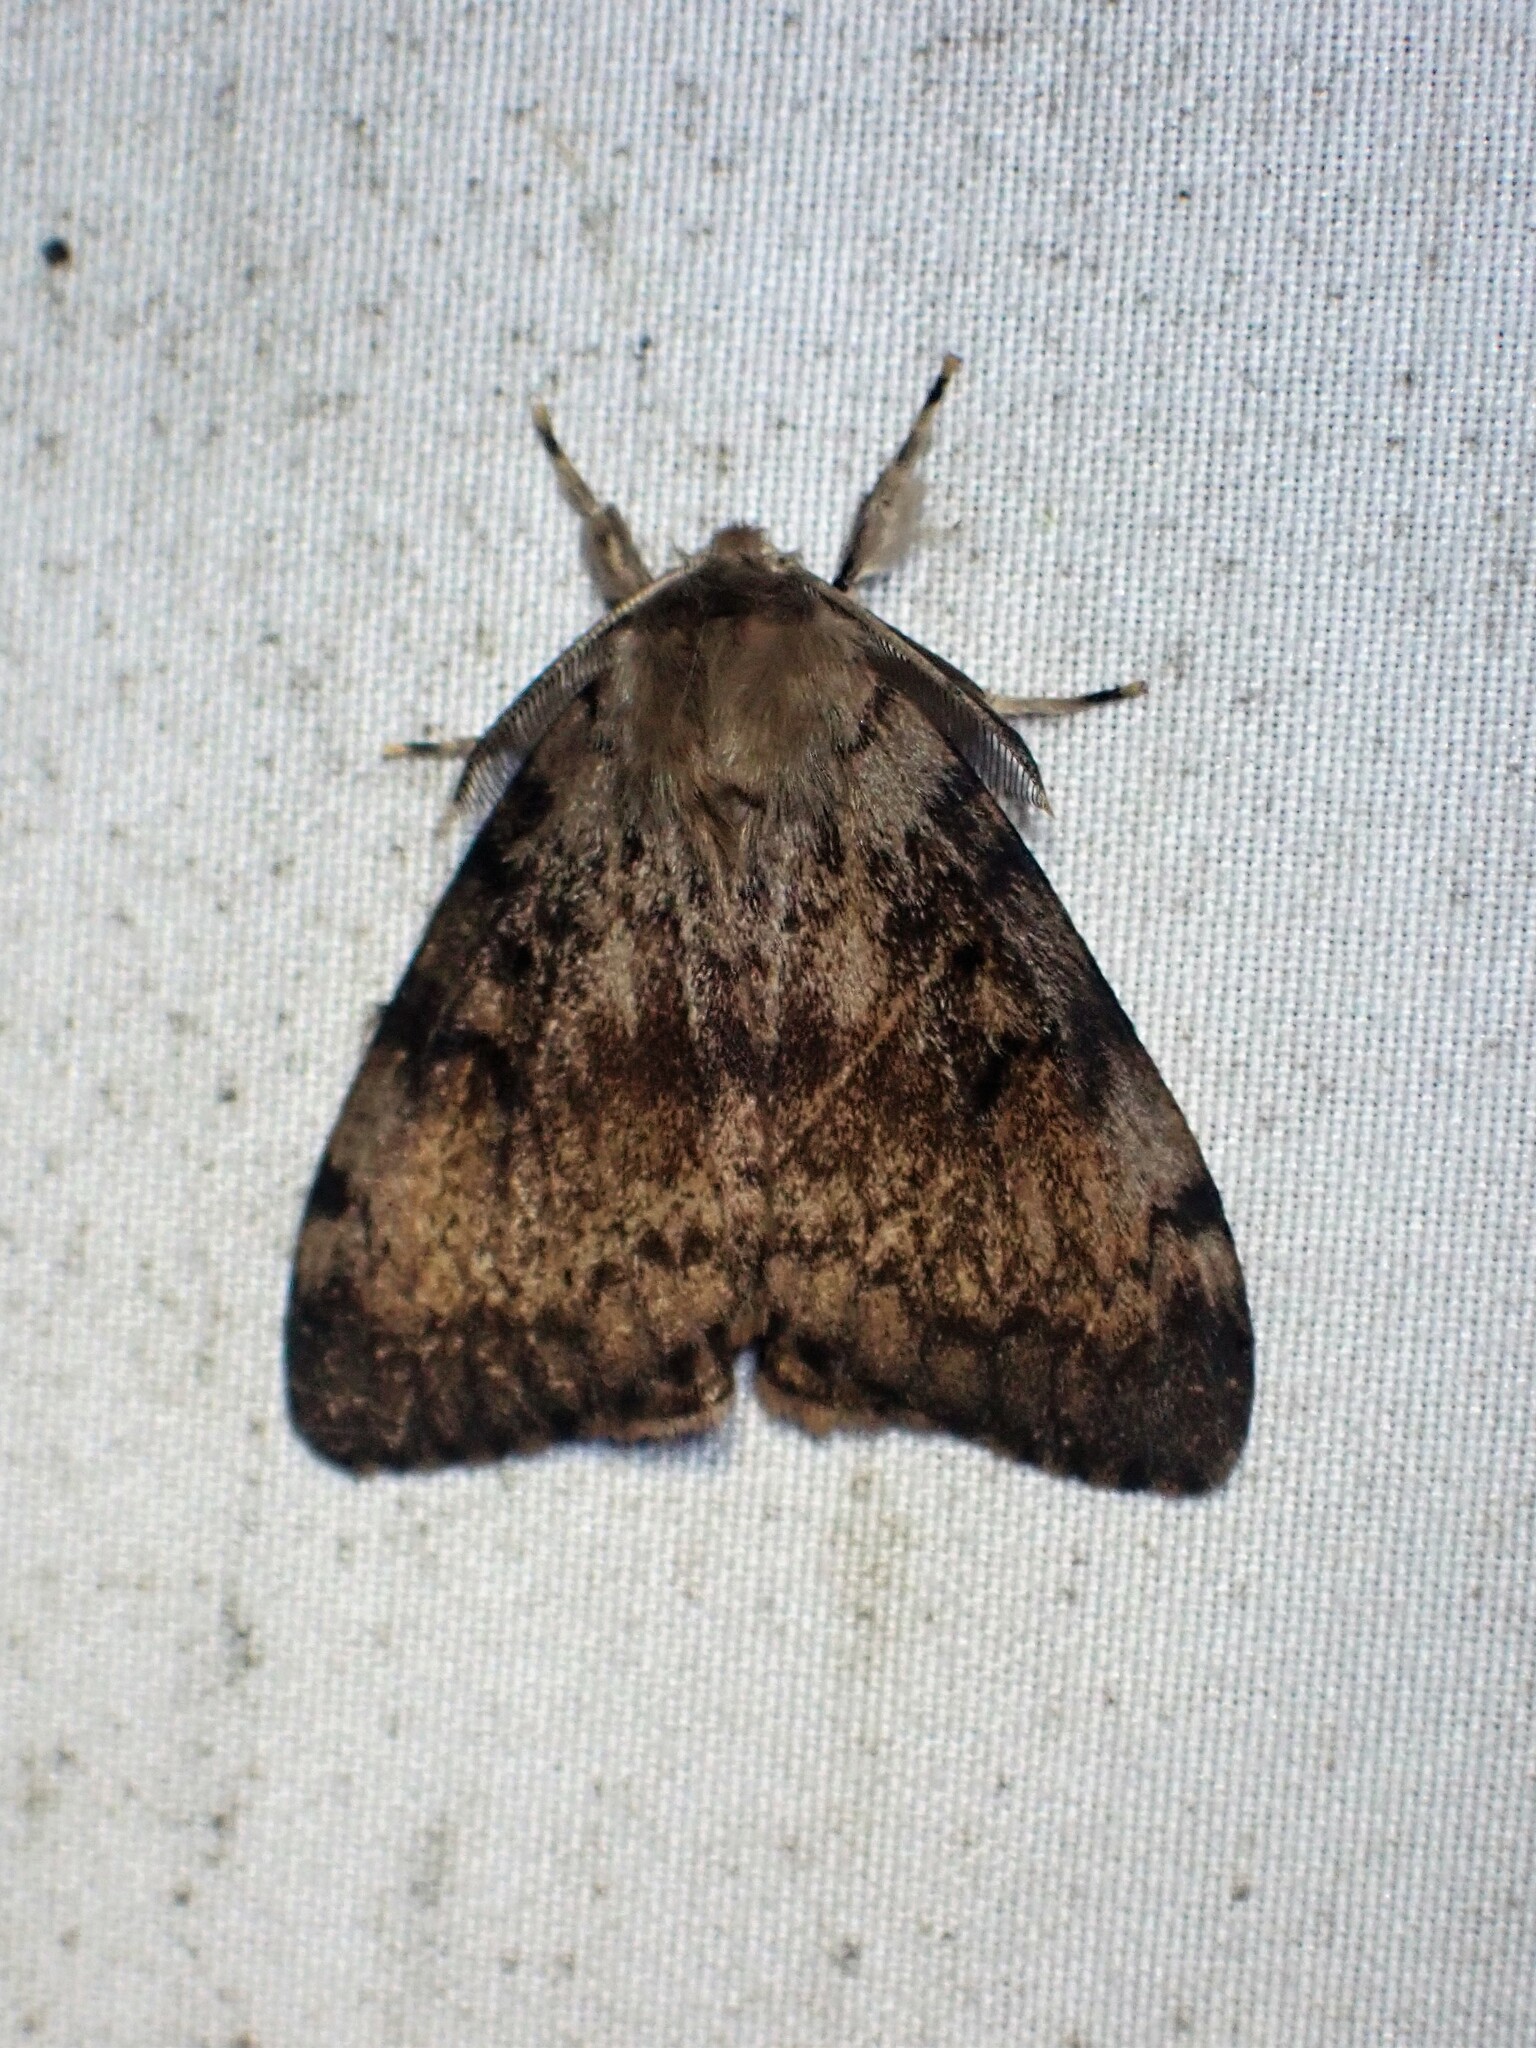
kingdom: Animalia
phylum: Arthropoda
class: Insecta
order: Lepidoptera
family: Erebidae
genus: Lymantria
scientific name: Lymantria dispar
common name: Gypsy moth
